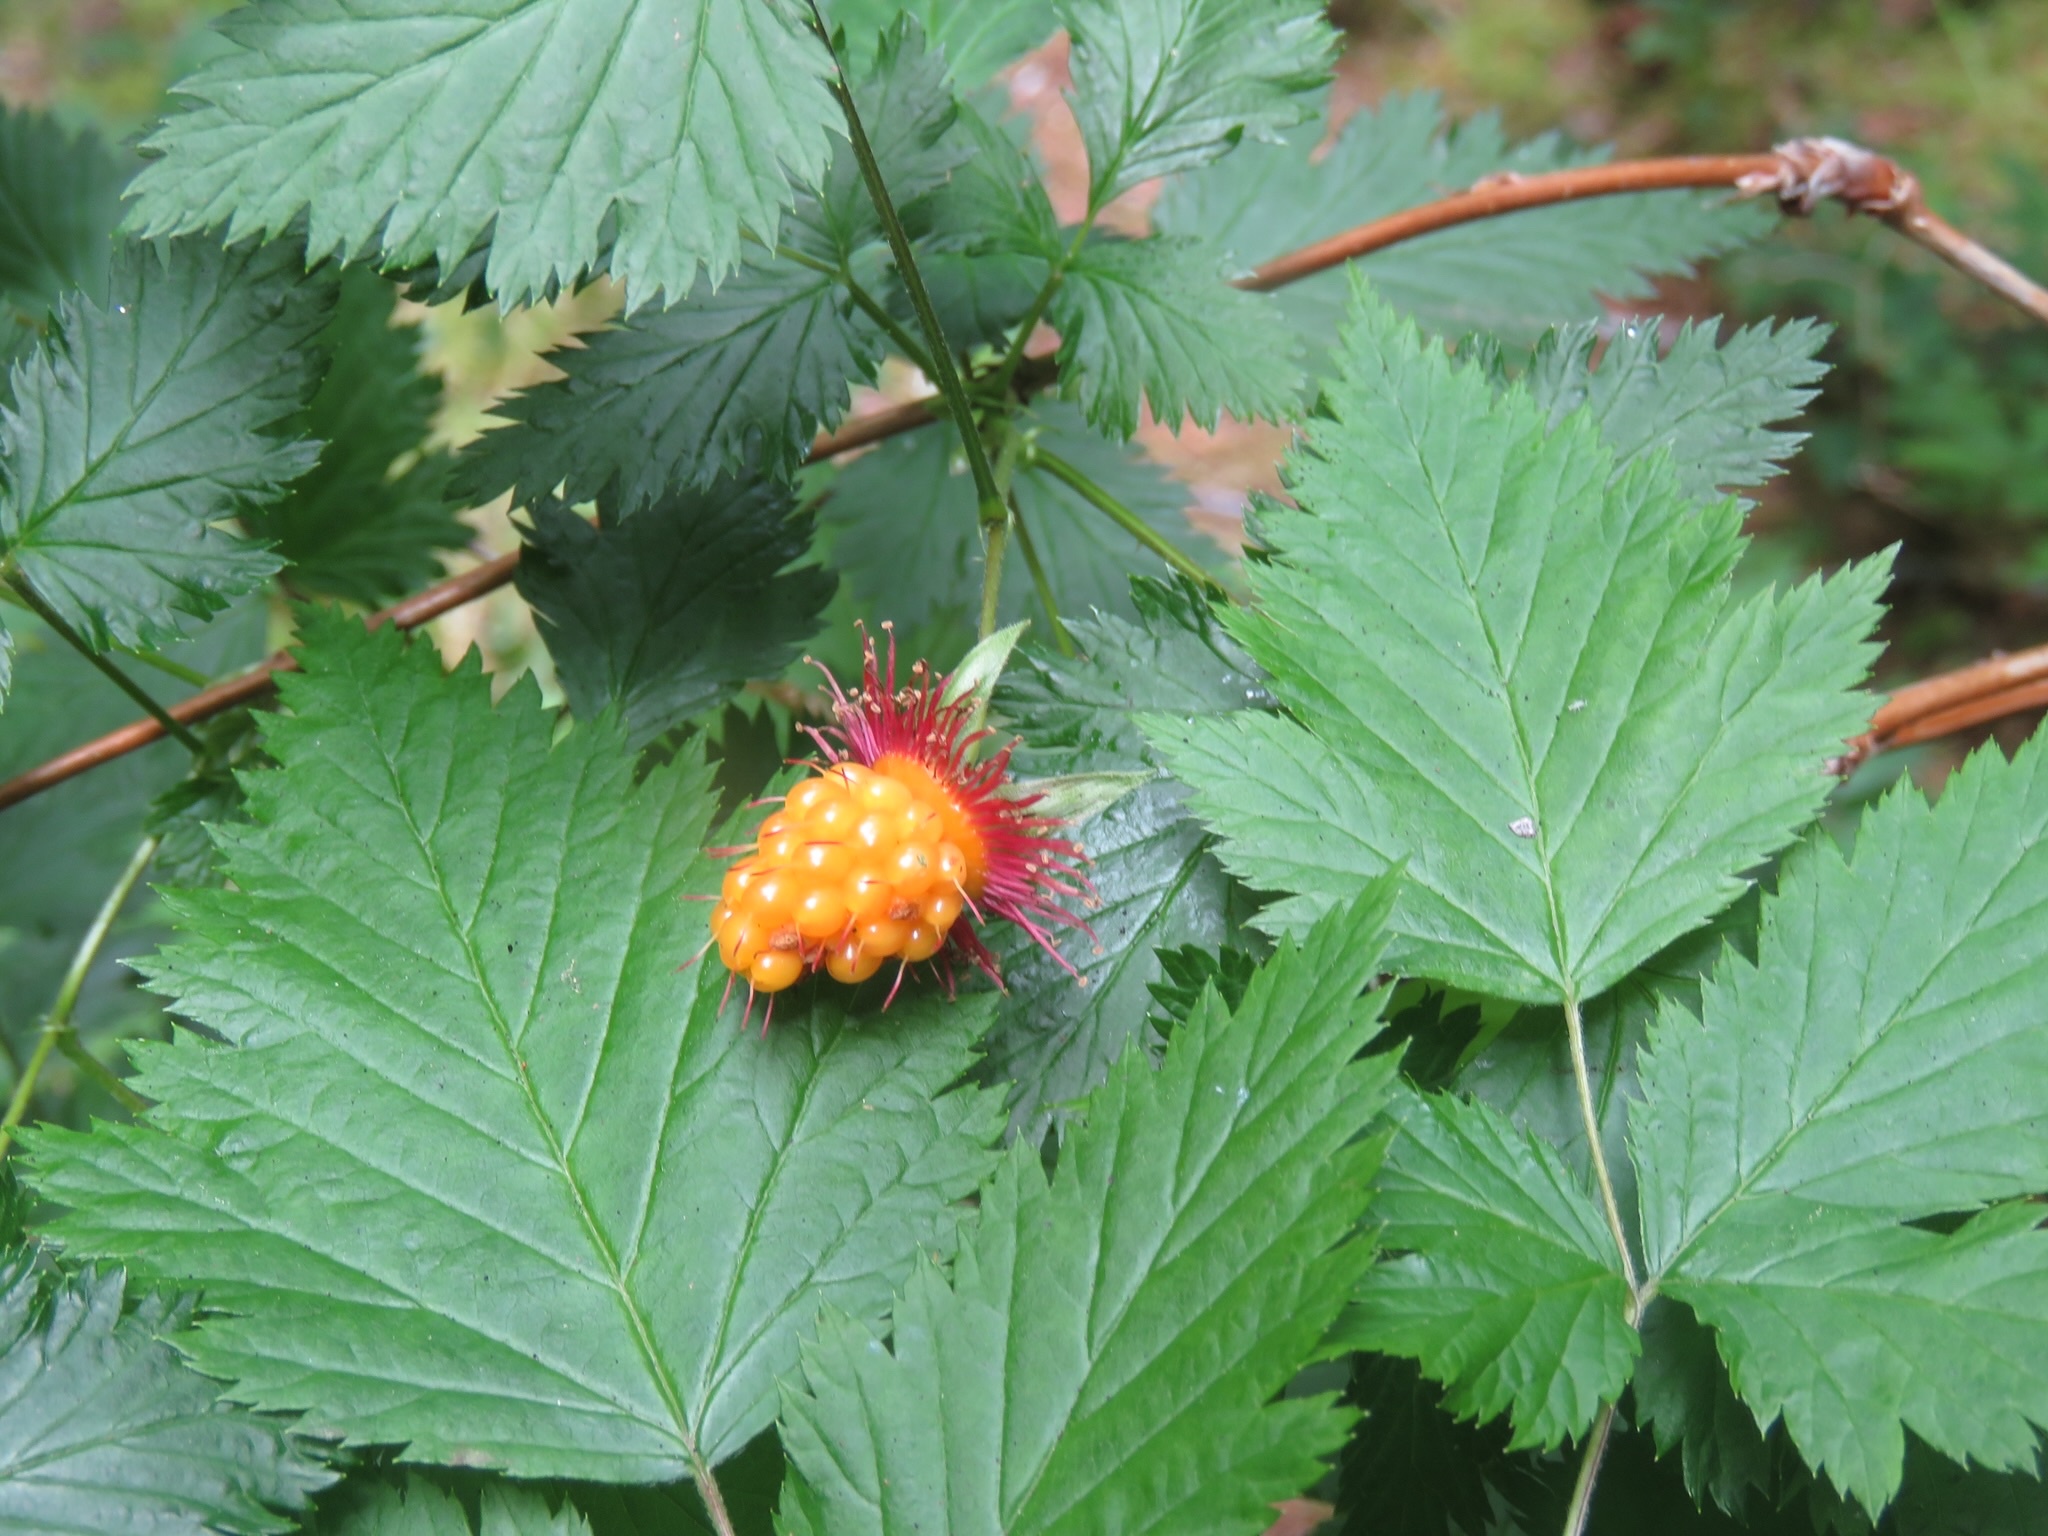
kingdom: Plantae
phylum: Tracheophyta
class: Magnoliopsida
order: Rosales
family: Rosaceae
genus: Rubus
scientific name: Rubus spectabilis
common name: Salmonberry
